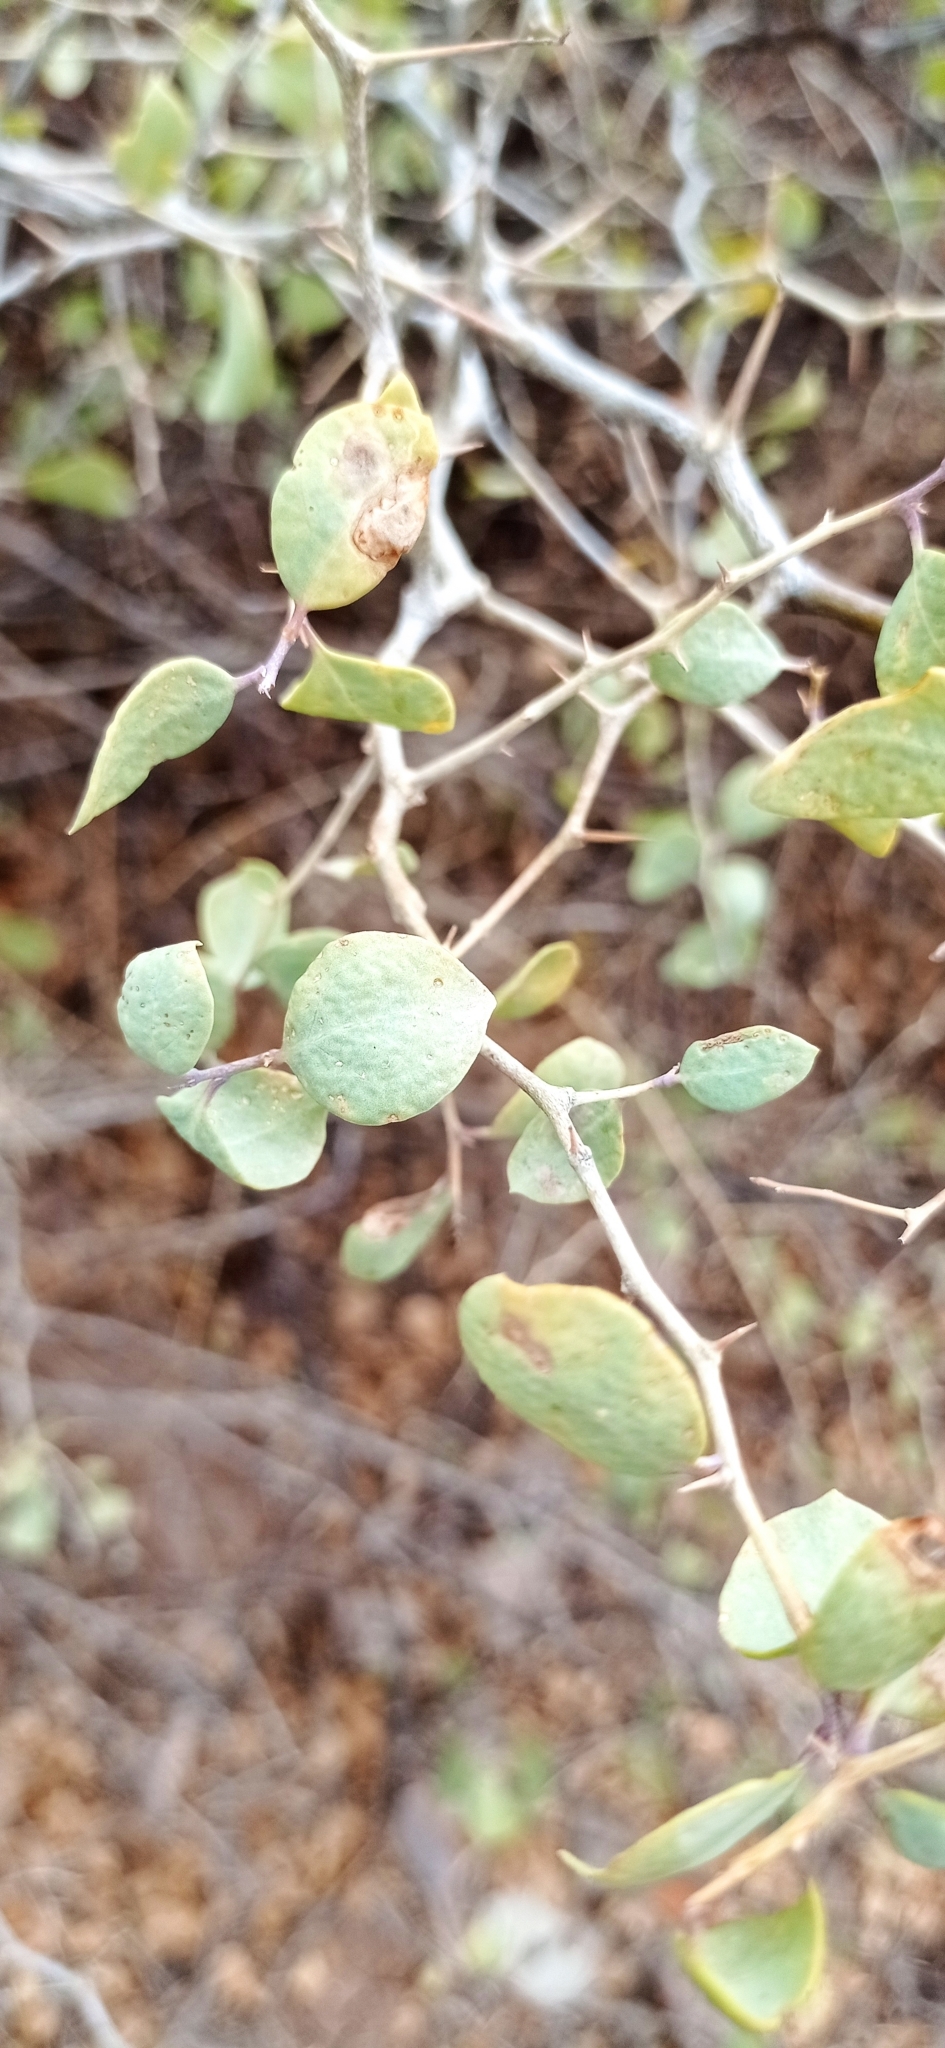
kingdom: Plantae
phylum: Tracheophyta
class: Magnoliopsida
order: Solanales
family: Solanaceae
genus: Lycium
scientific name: Lycium boerhaaviifolium
